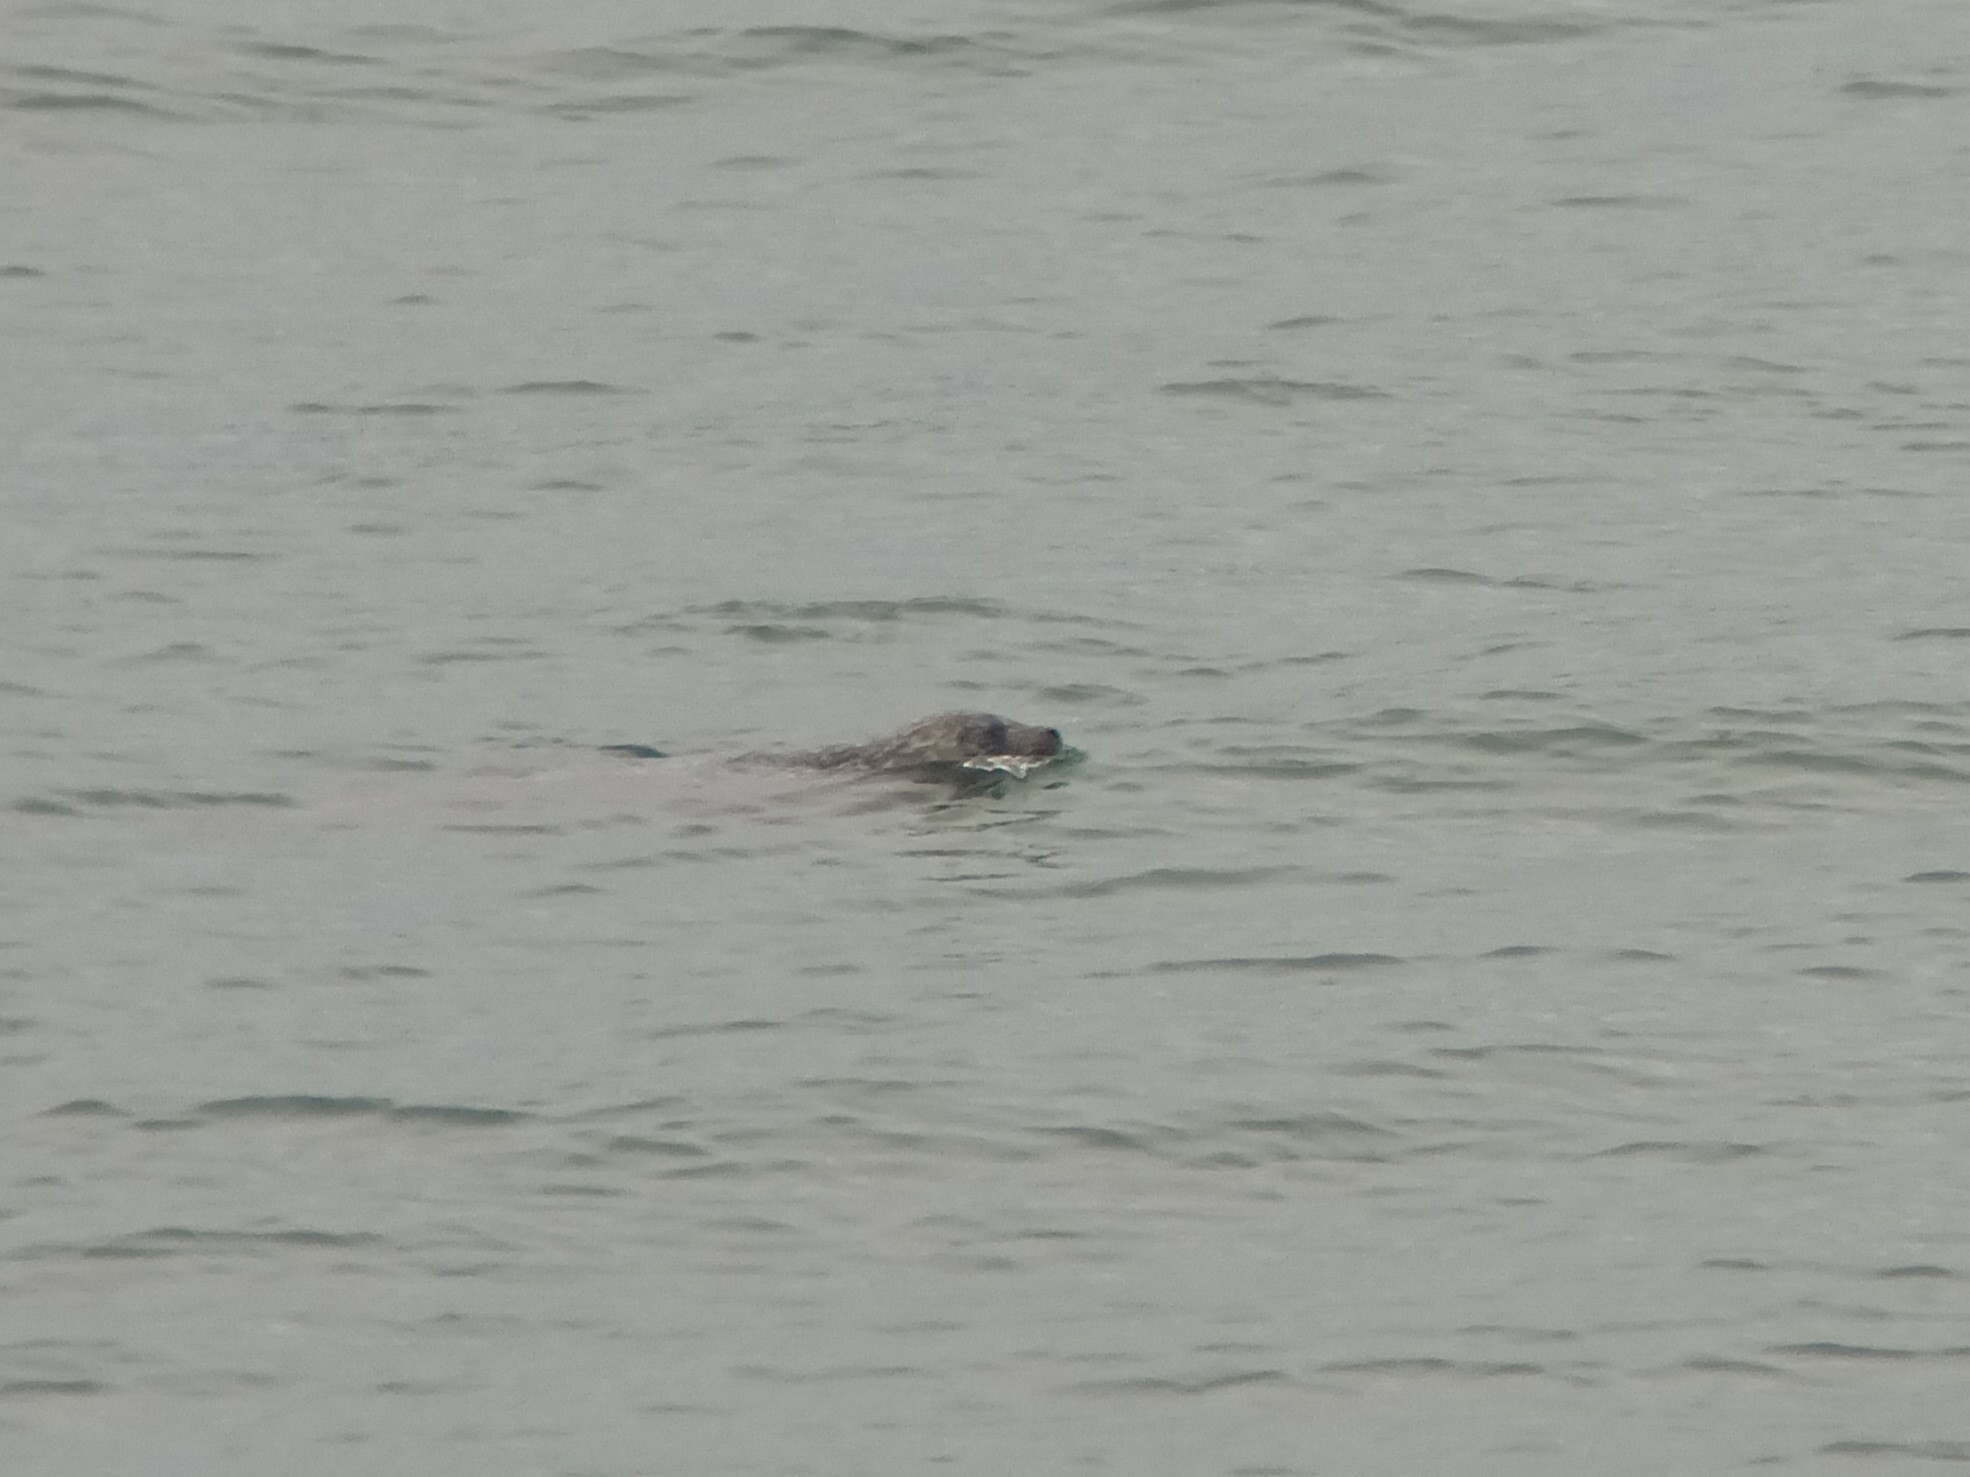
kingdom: Animalia
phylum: Chordata
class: Mammalia
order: Carnivora
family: Phocidae
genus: Phoca
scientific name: Phoca vitulina
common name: Harbor seal
